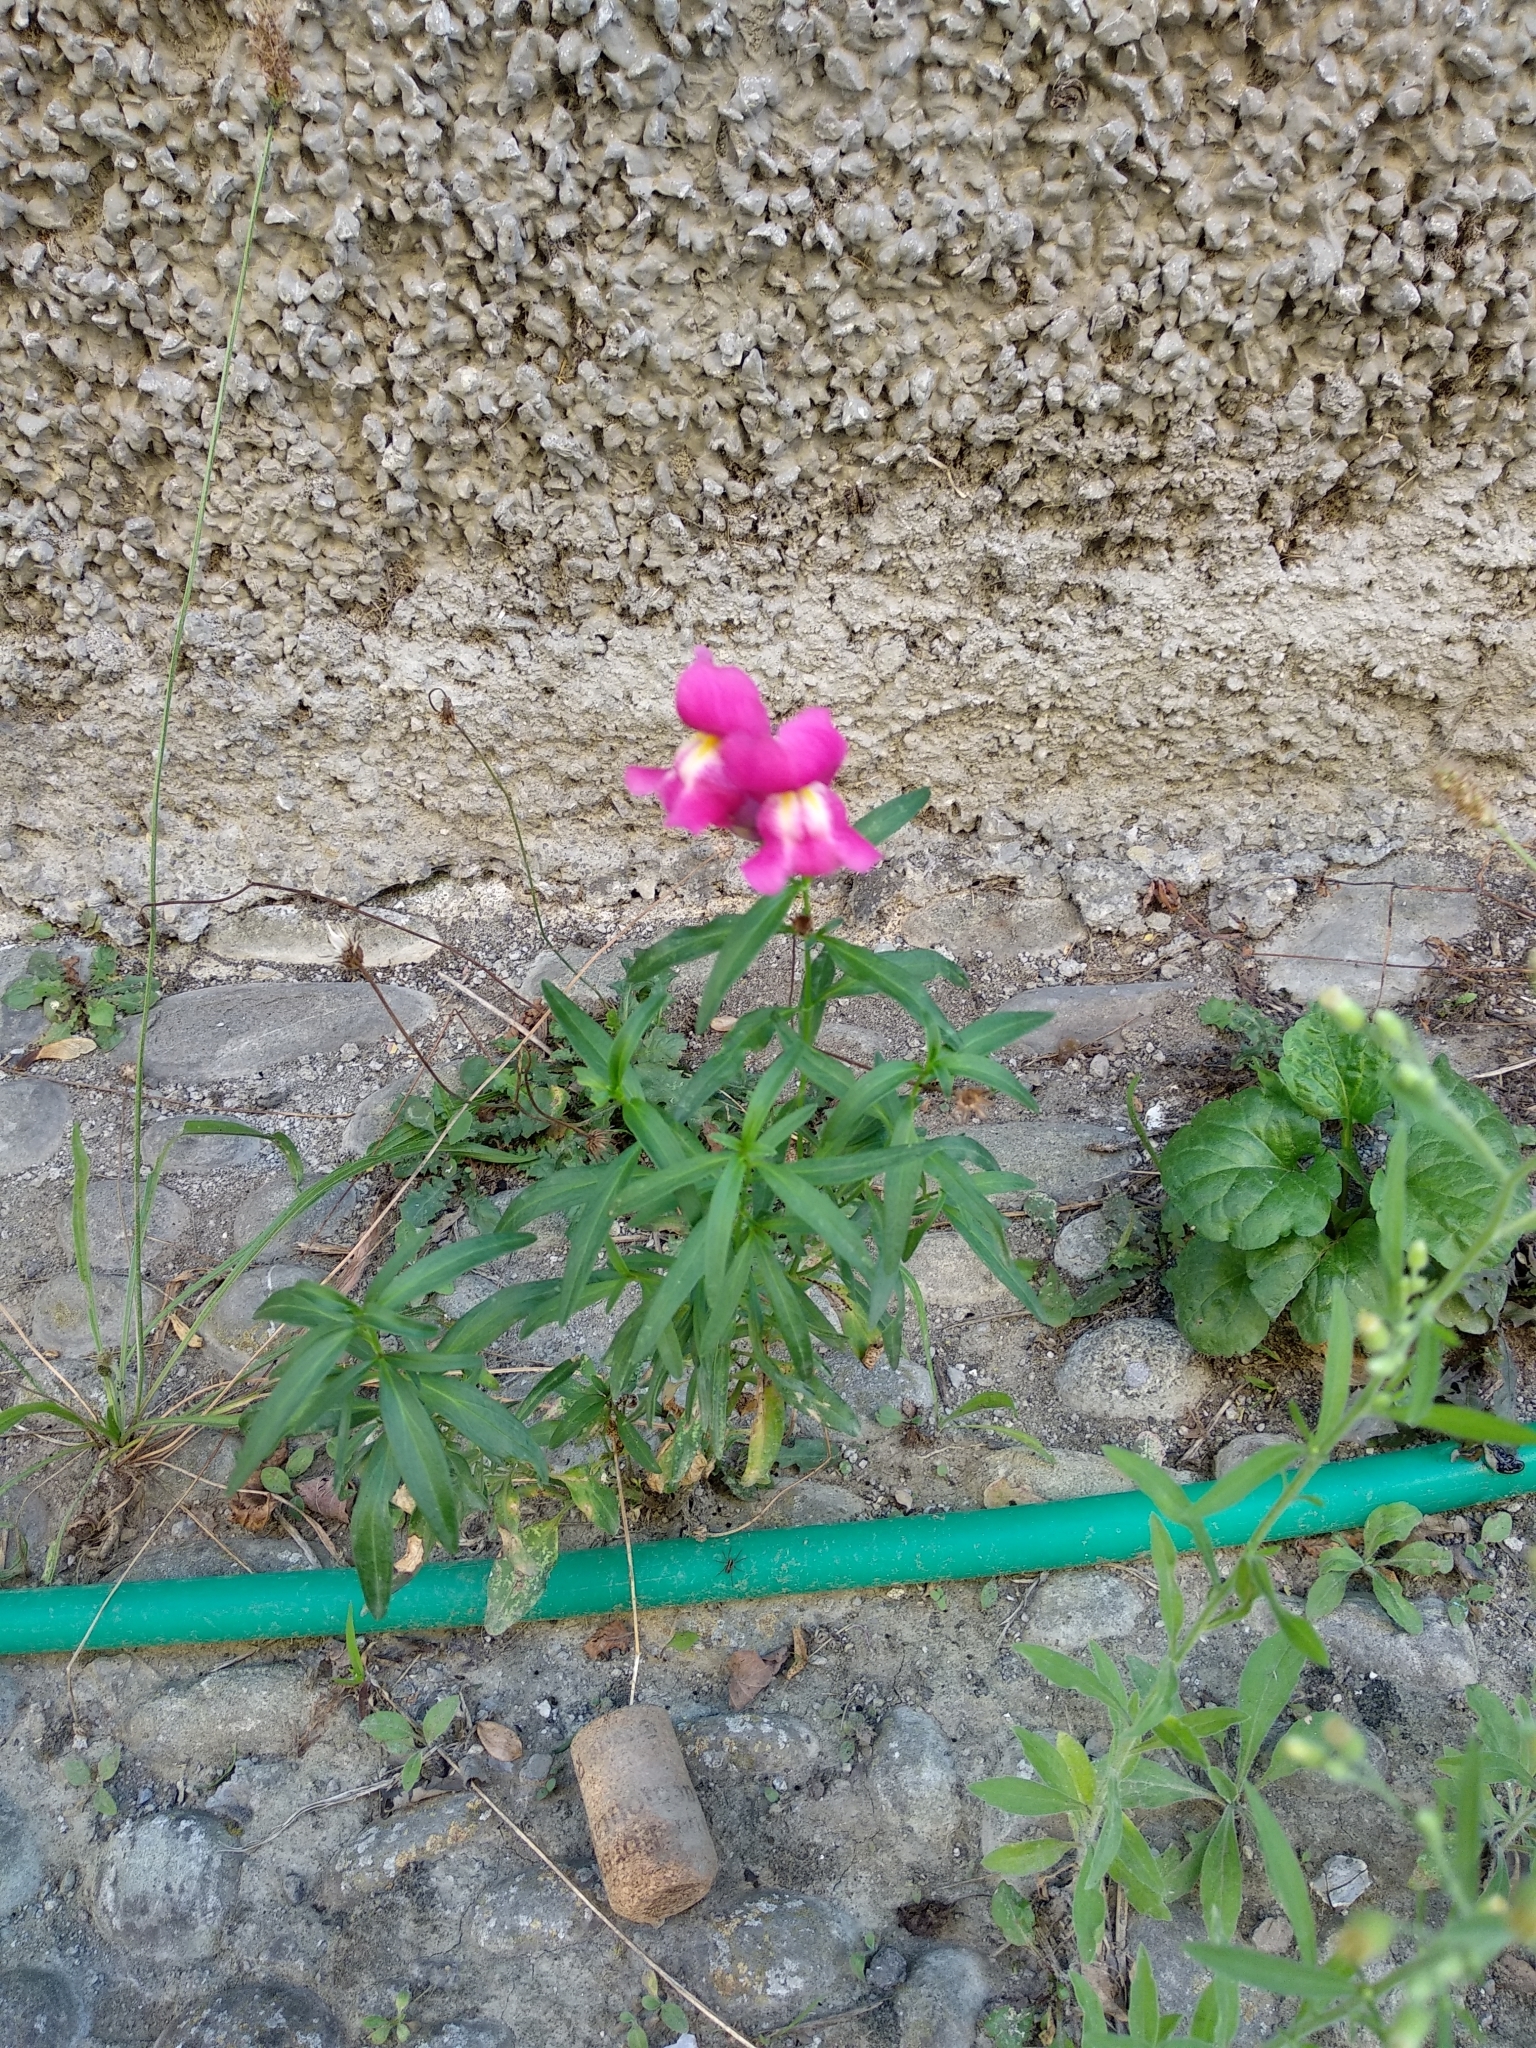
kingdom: Plantae
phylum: Tracheophyta
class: Magnoliopsida
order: Lamiales
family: Plantaginaceae
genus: Antirrhinum
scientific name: Antirrhinum majus
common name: Snapdragon
